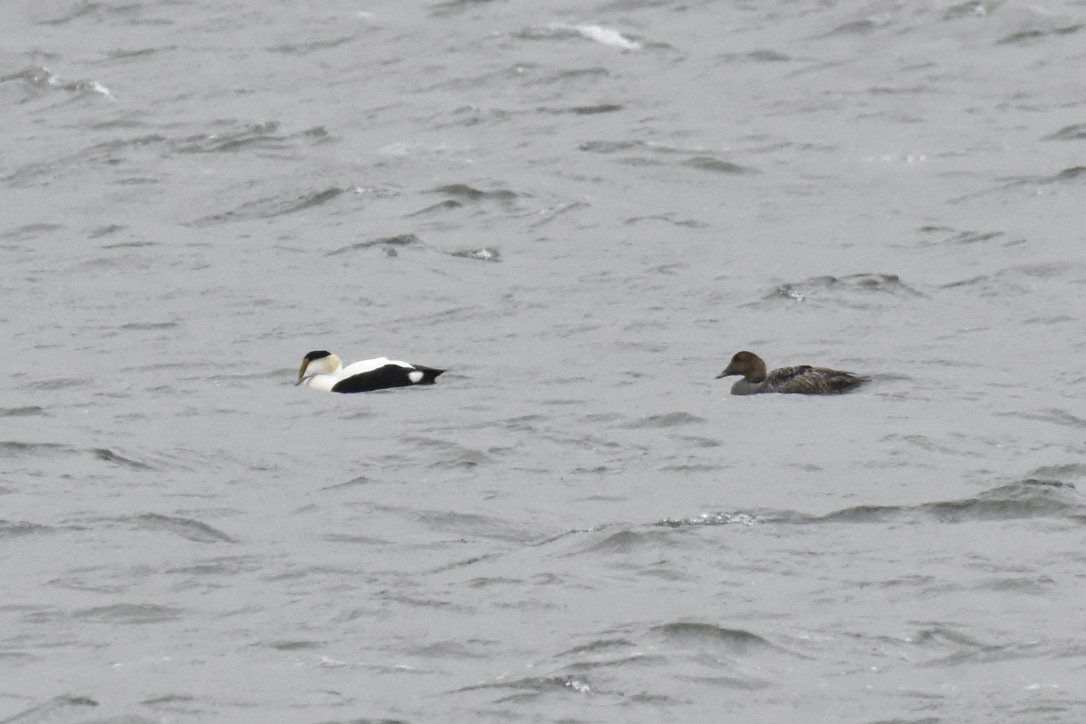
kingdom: Animalia
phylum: Chordata
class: Aves
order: Anseriformes
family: Anatidae
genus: Somateria
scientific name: Somateria mollissima
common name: Common eider
